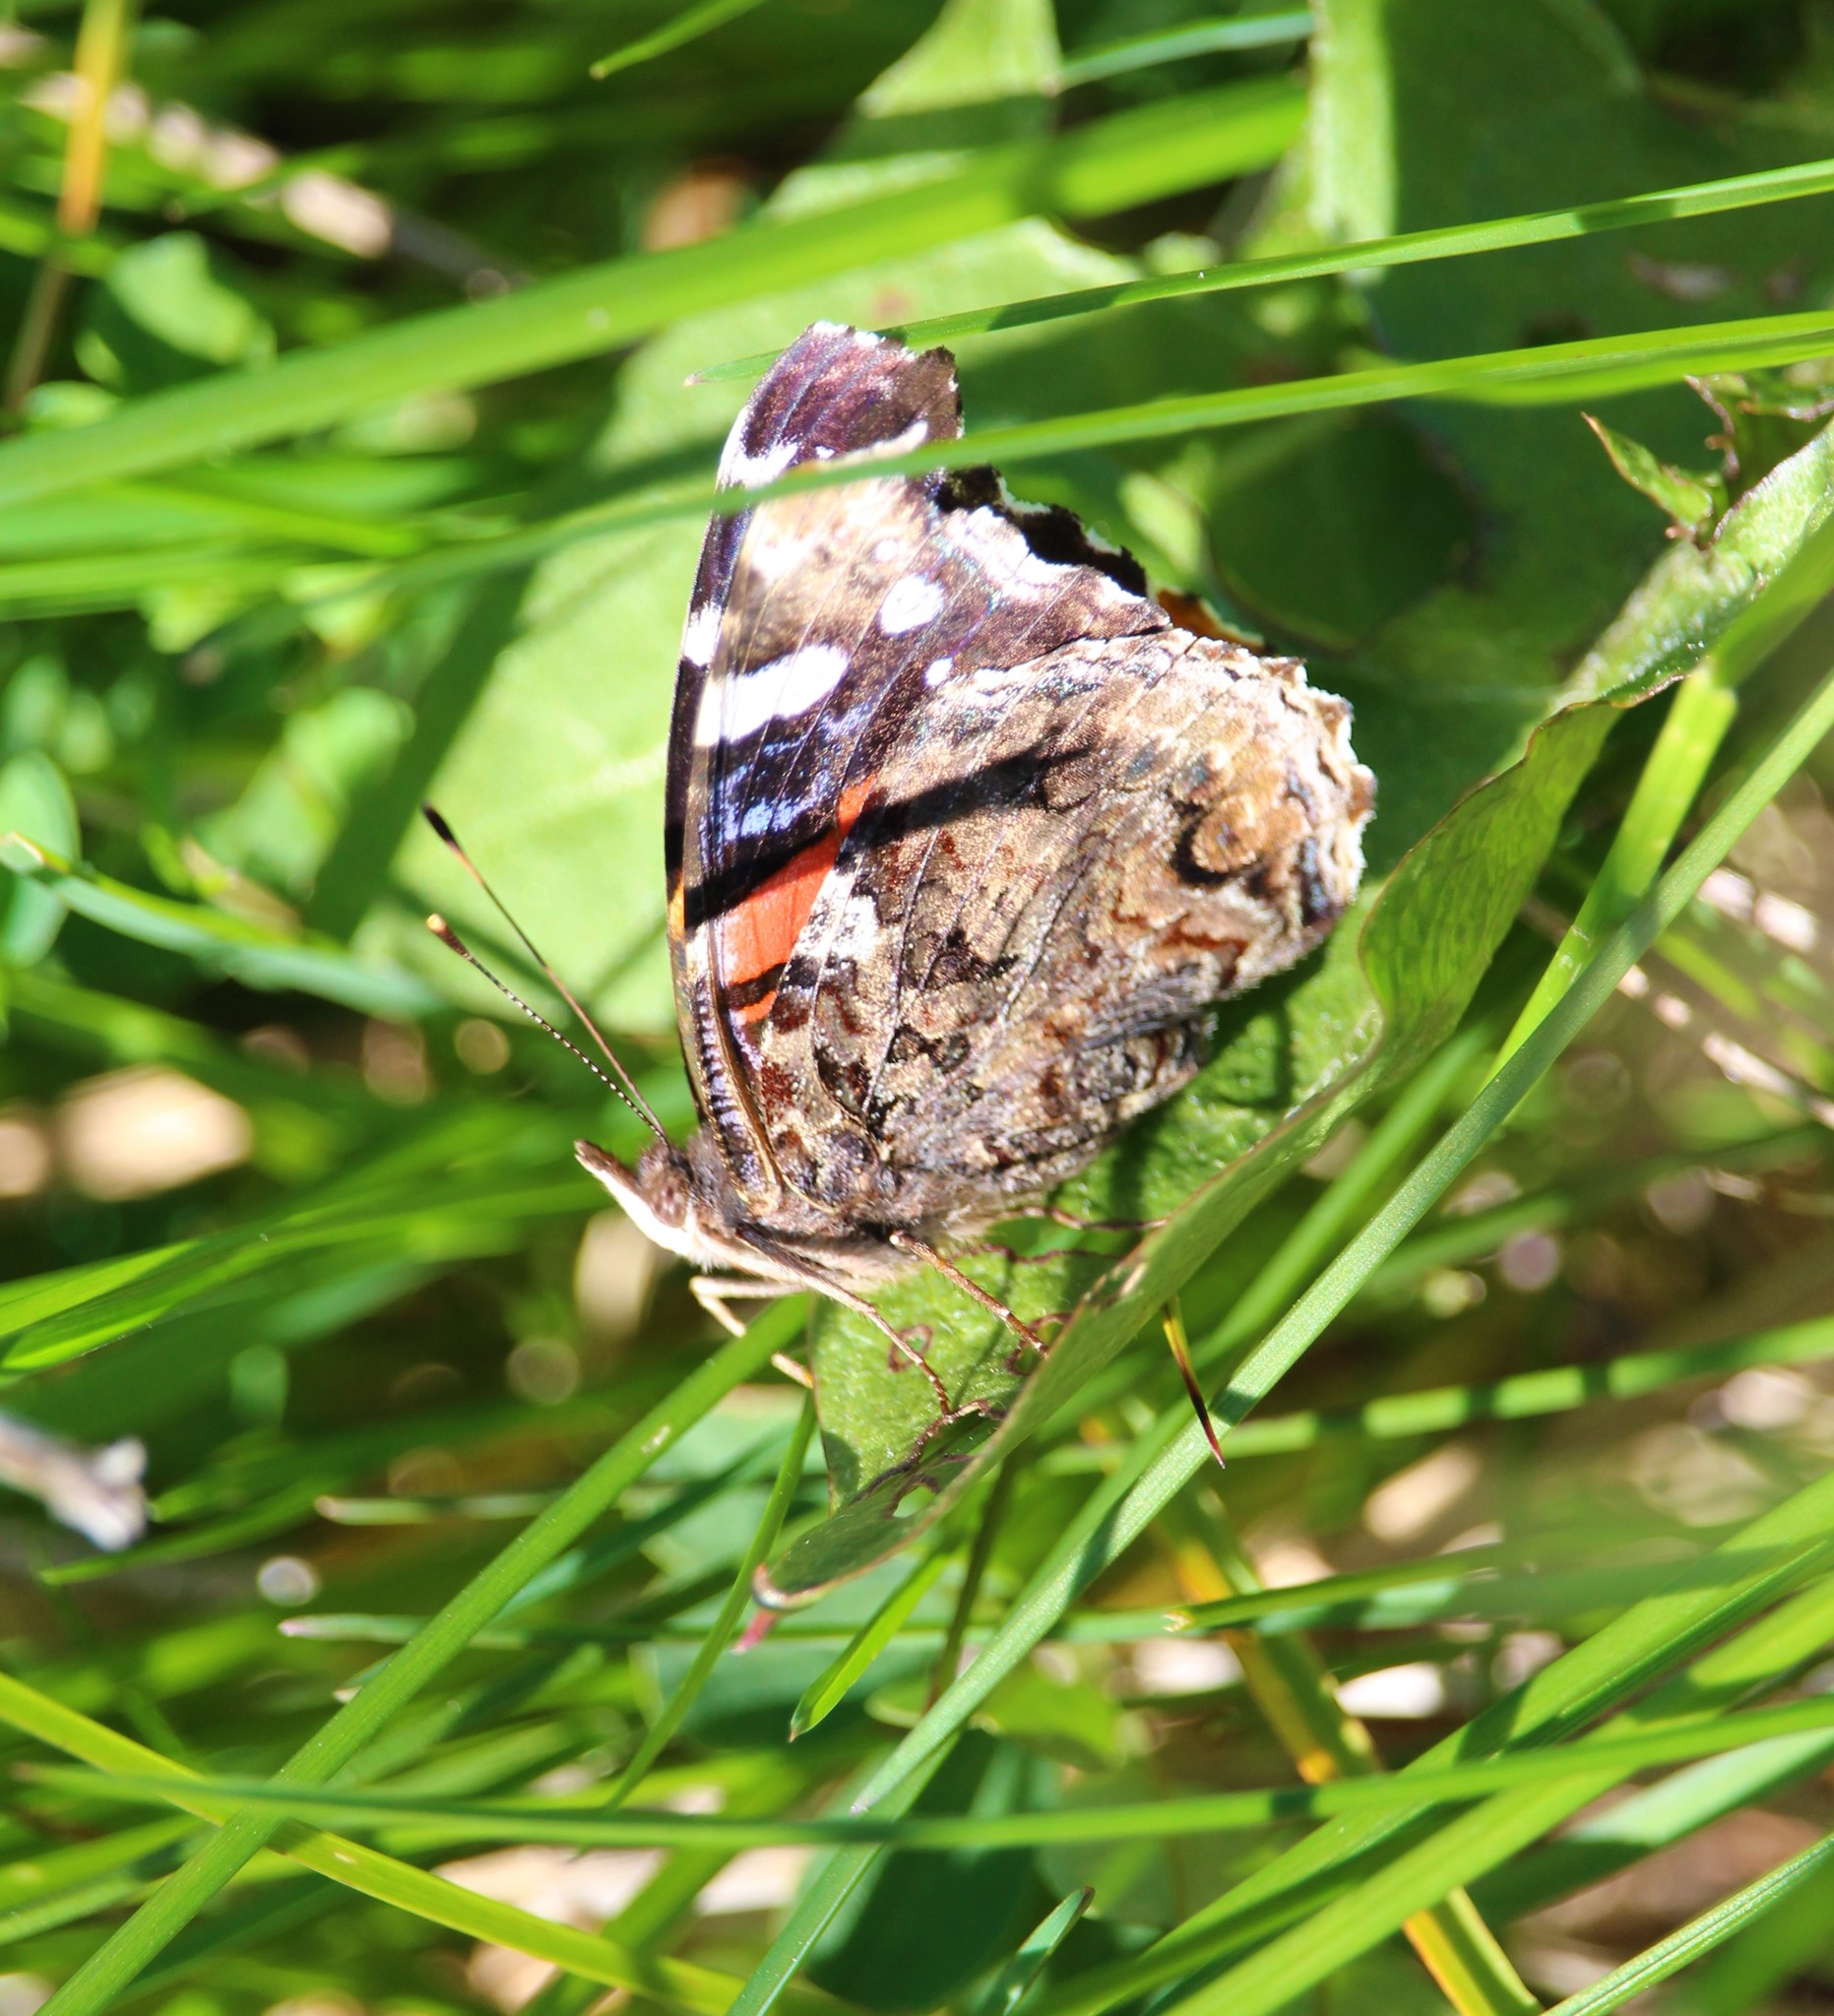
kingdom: Animalia
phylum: Arthropoda
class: Insecta
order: Lepidoptera
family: Nymphalidae
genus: Vanessa
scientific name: Vanessa atalanta
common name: Red admiral
